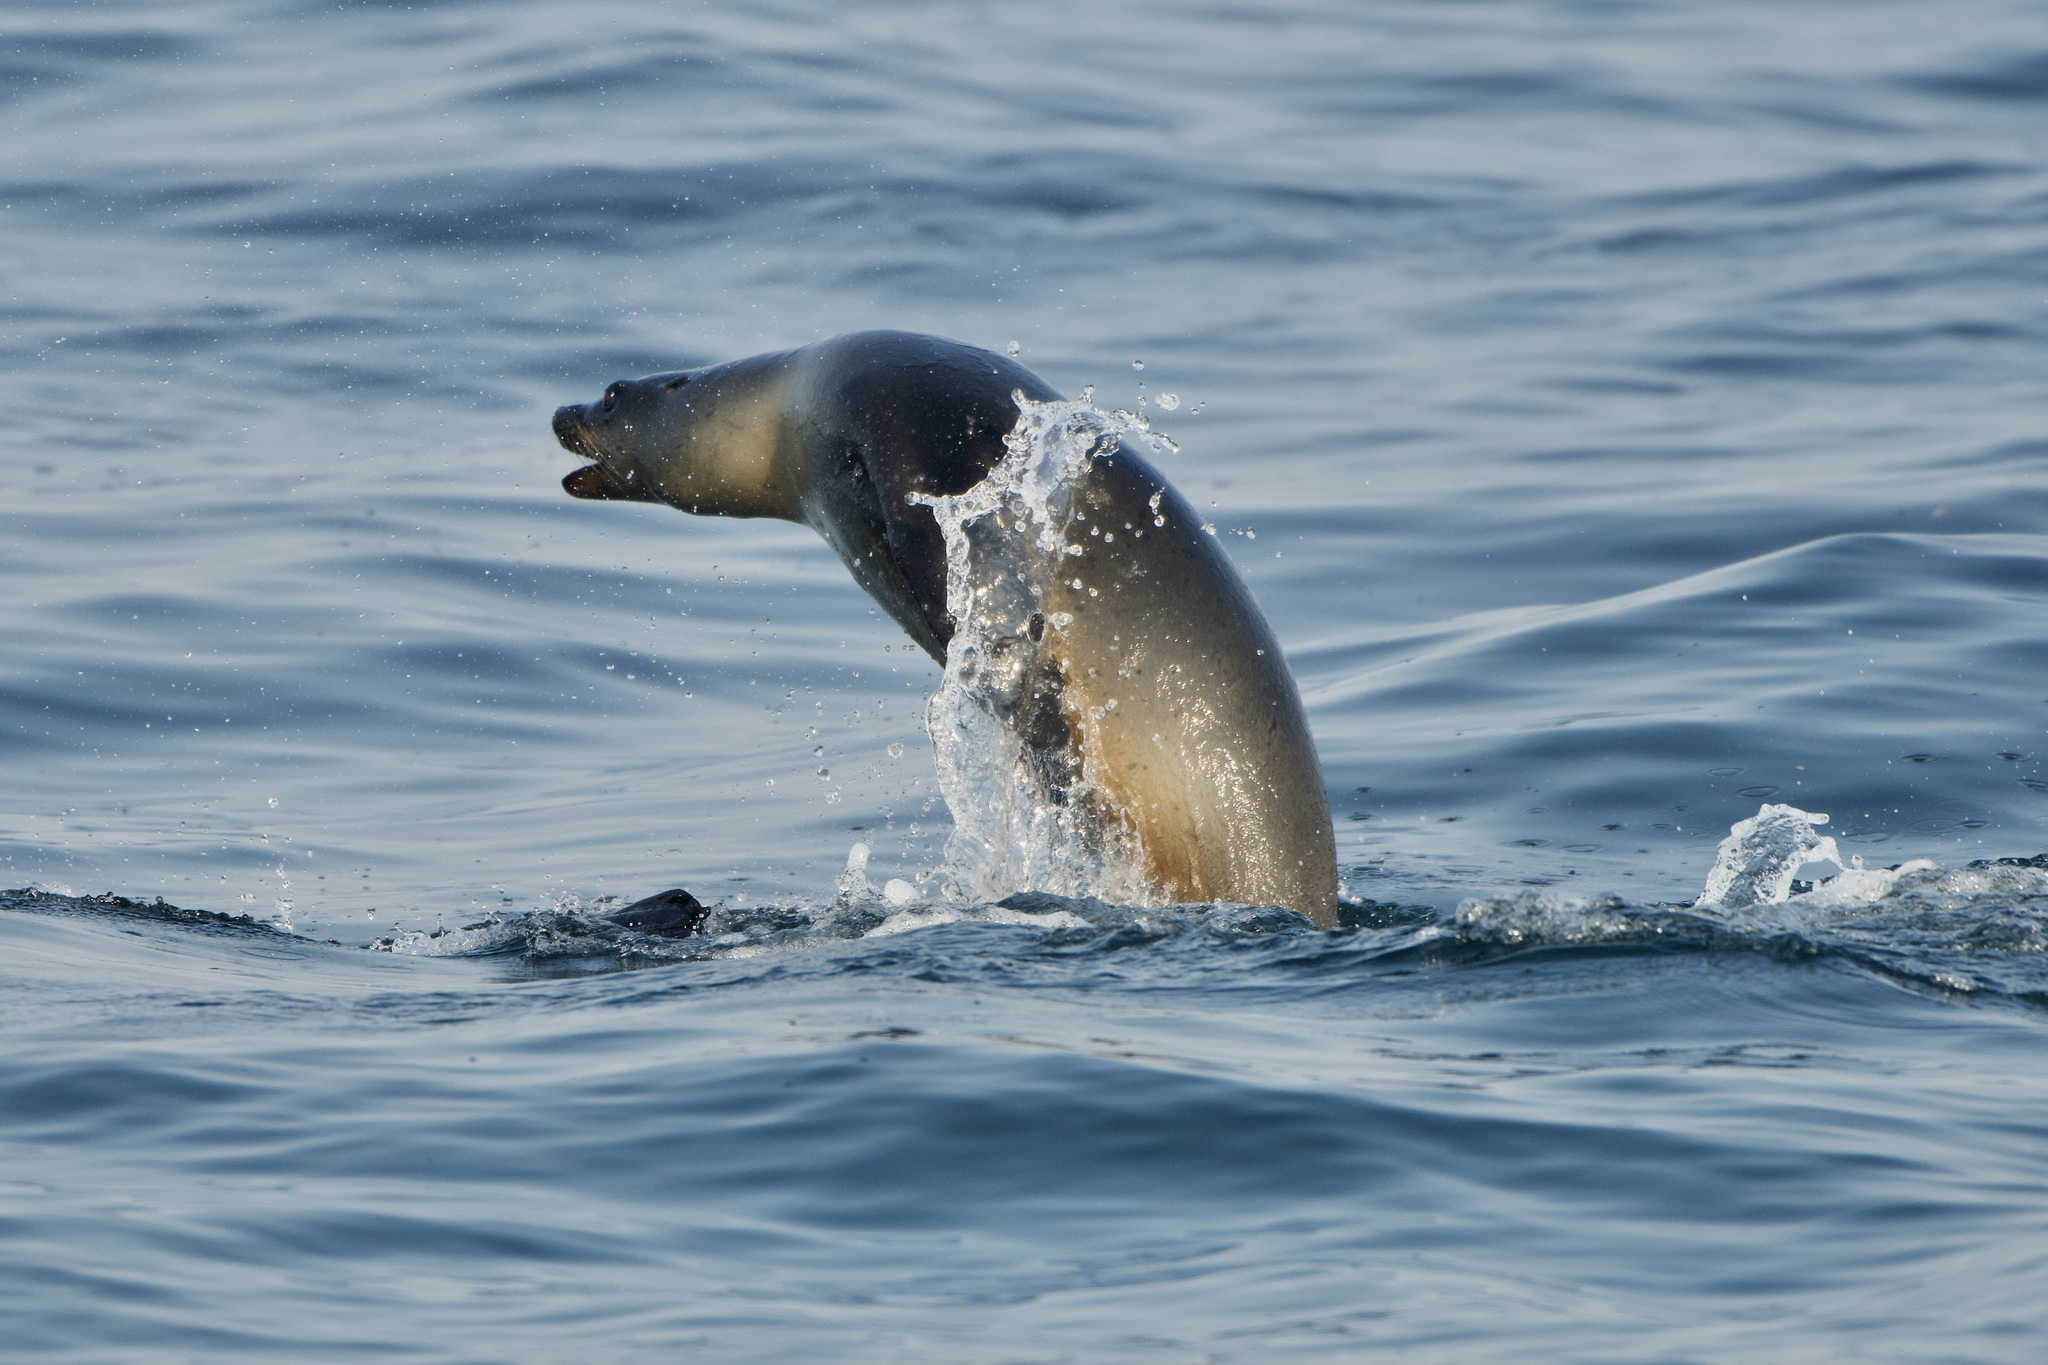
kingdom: Animalia
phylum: Chordata
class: Mammalia
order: Carnivora
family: Otariidae
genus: Zalophus
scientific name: Zalophus californianus
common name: California sea lion
